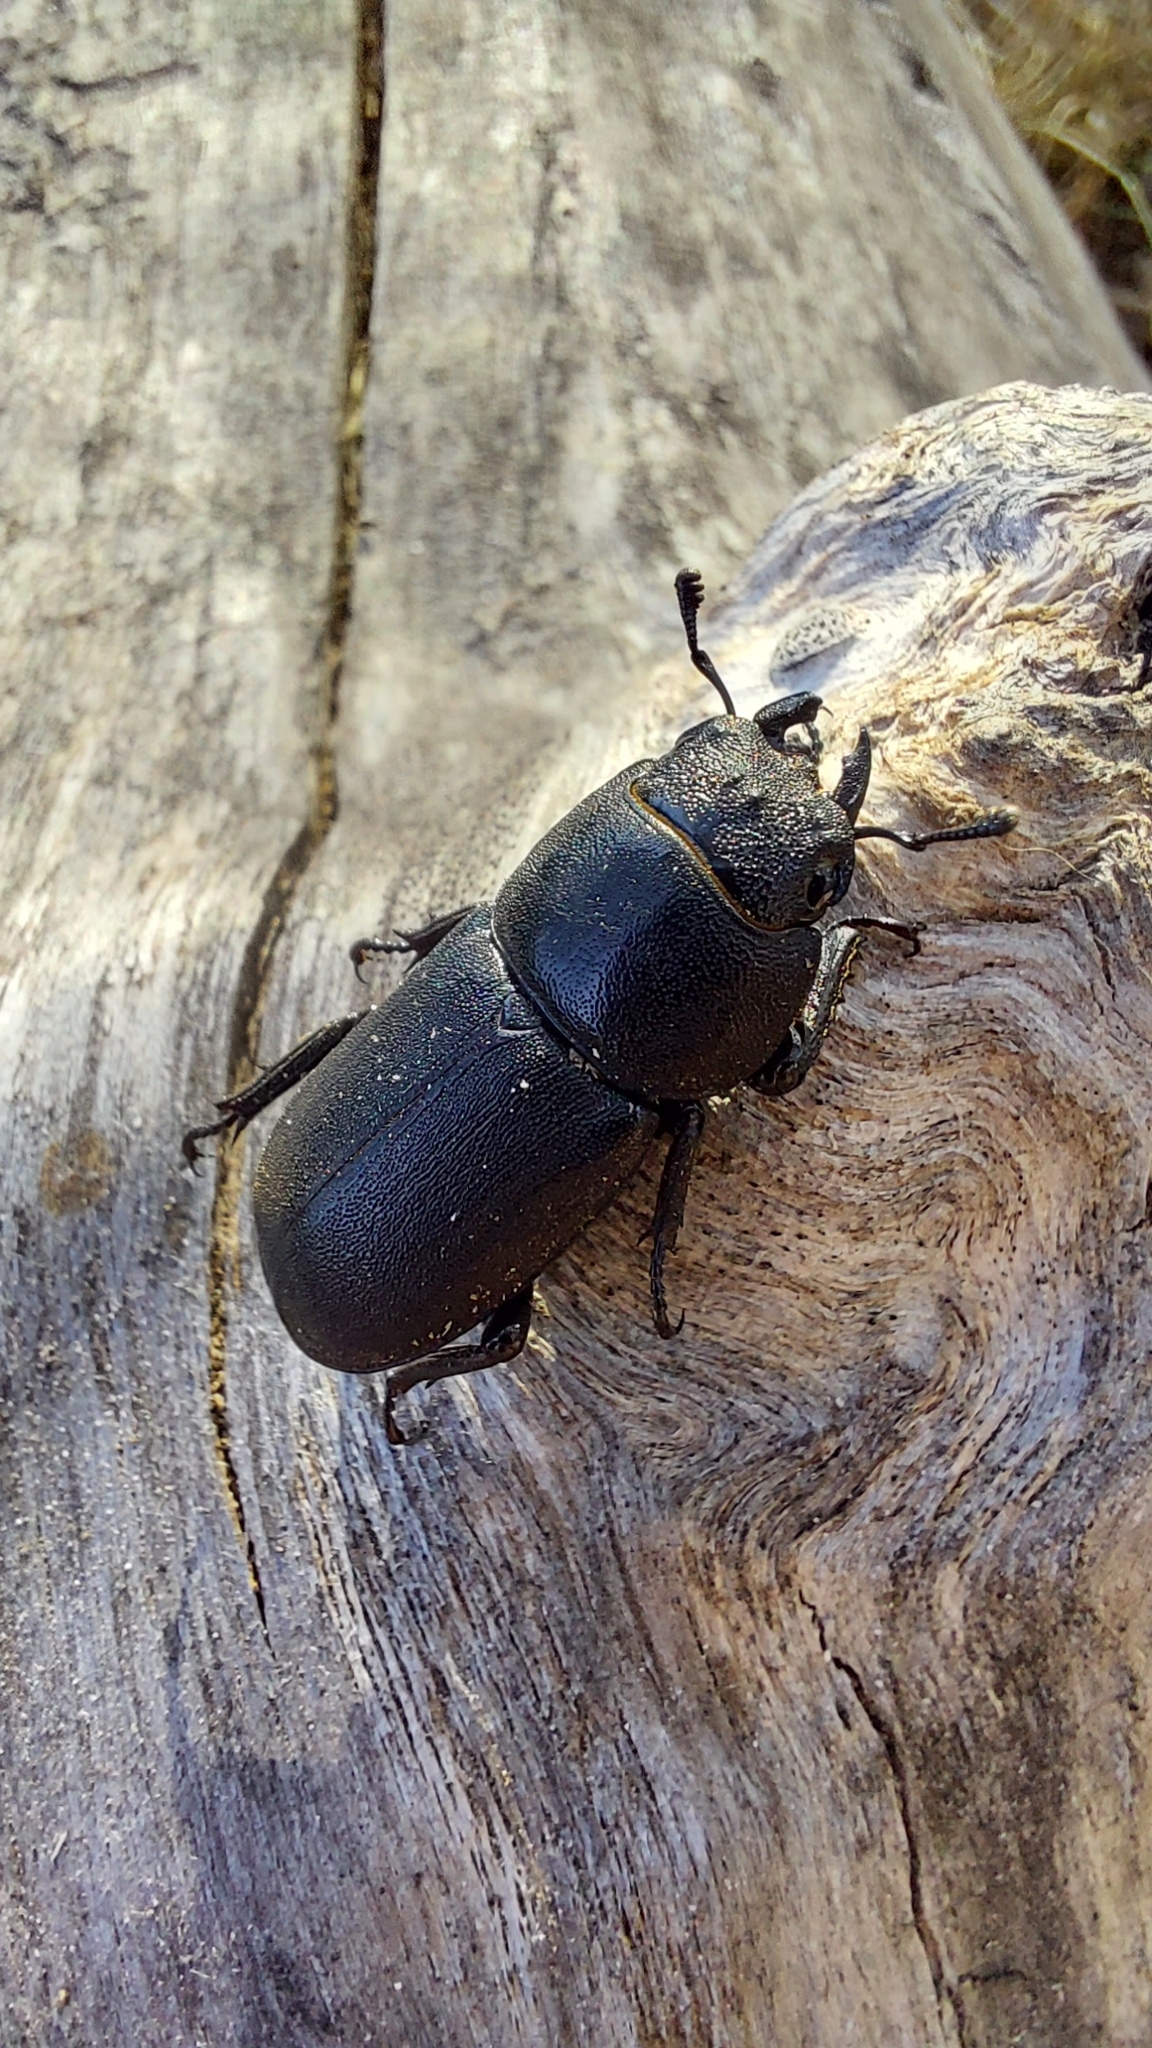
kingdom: Animalia
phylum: Arthropoda
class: Insecta
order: Coleoptera
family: Lucanidae
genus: Dorcus
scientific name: Dorcus parallelipipedus
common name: Lesser stag beetle
